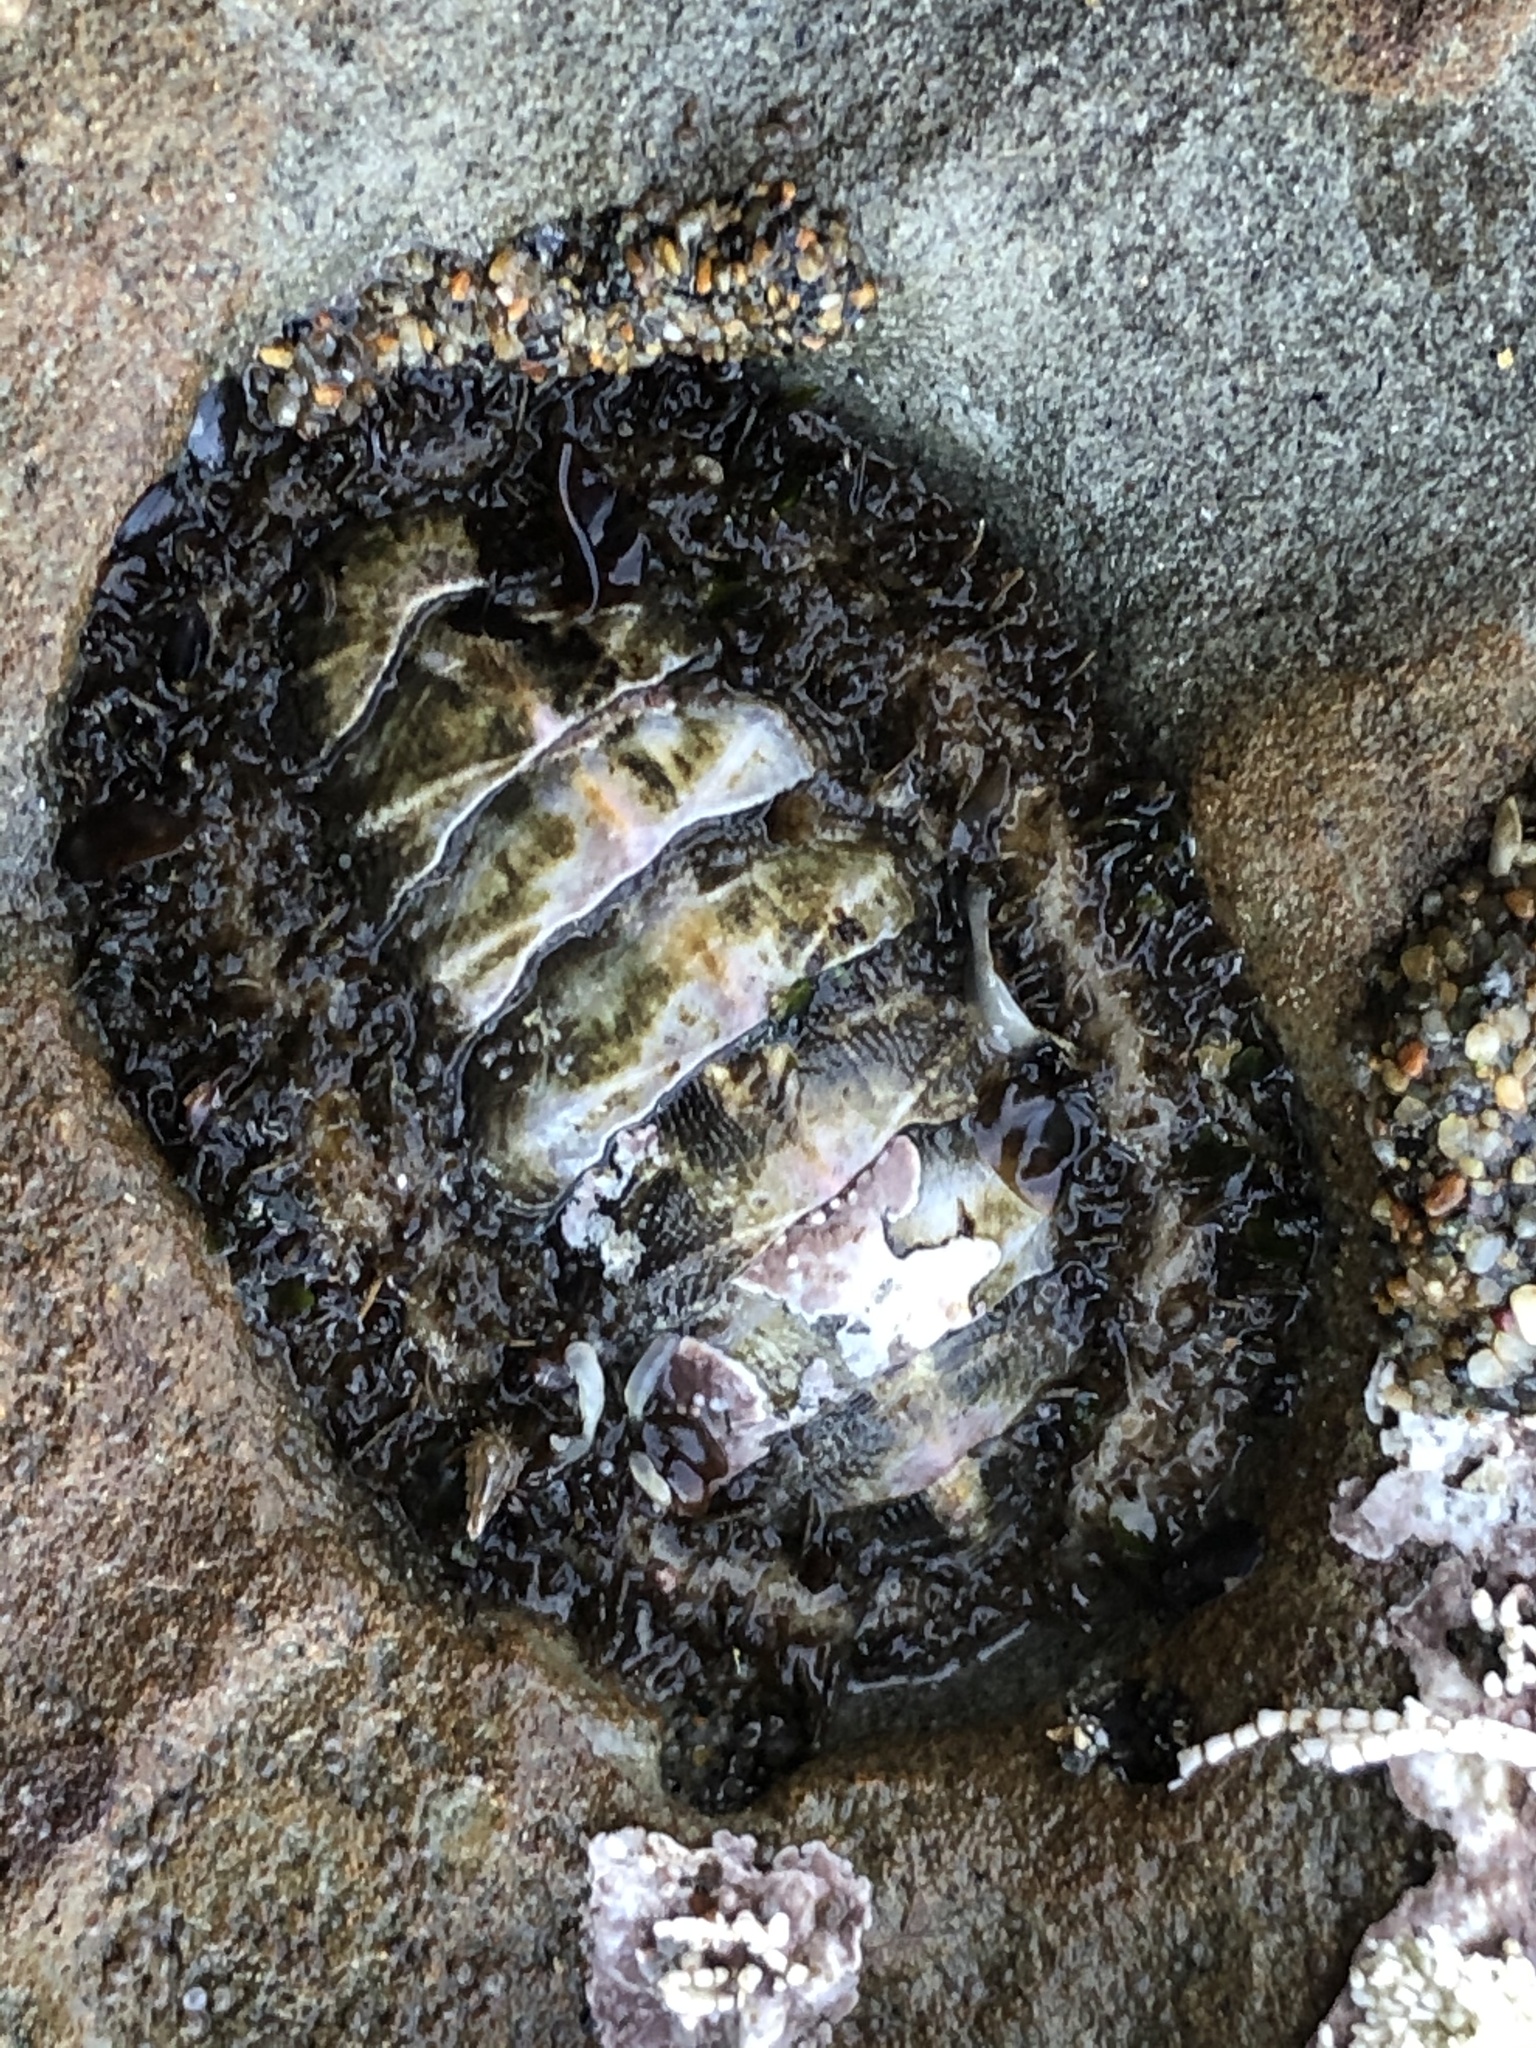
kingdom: Animalia
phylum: Mollusca
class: Polyplacophora
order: Chitonida
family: Mopaliidae
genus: Mopalia
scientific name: Mopalia muscosa
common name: Mossy chiton
